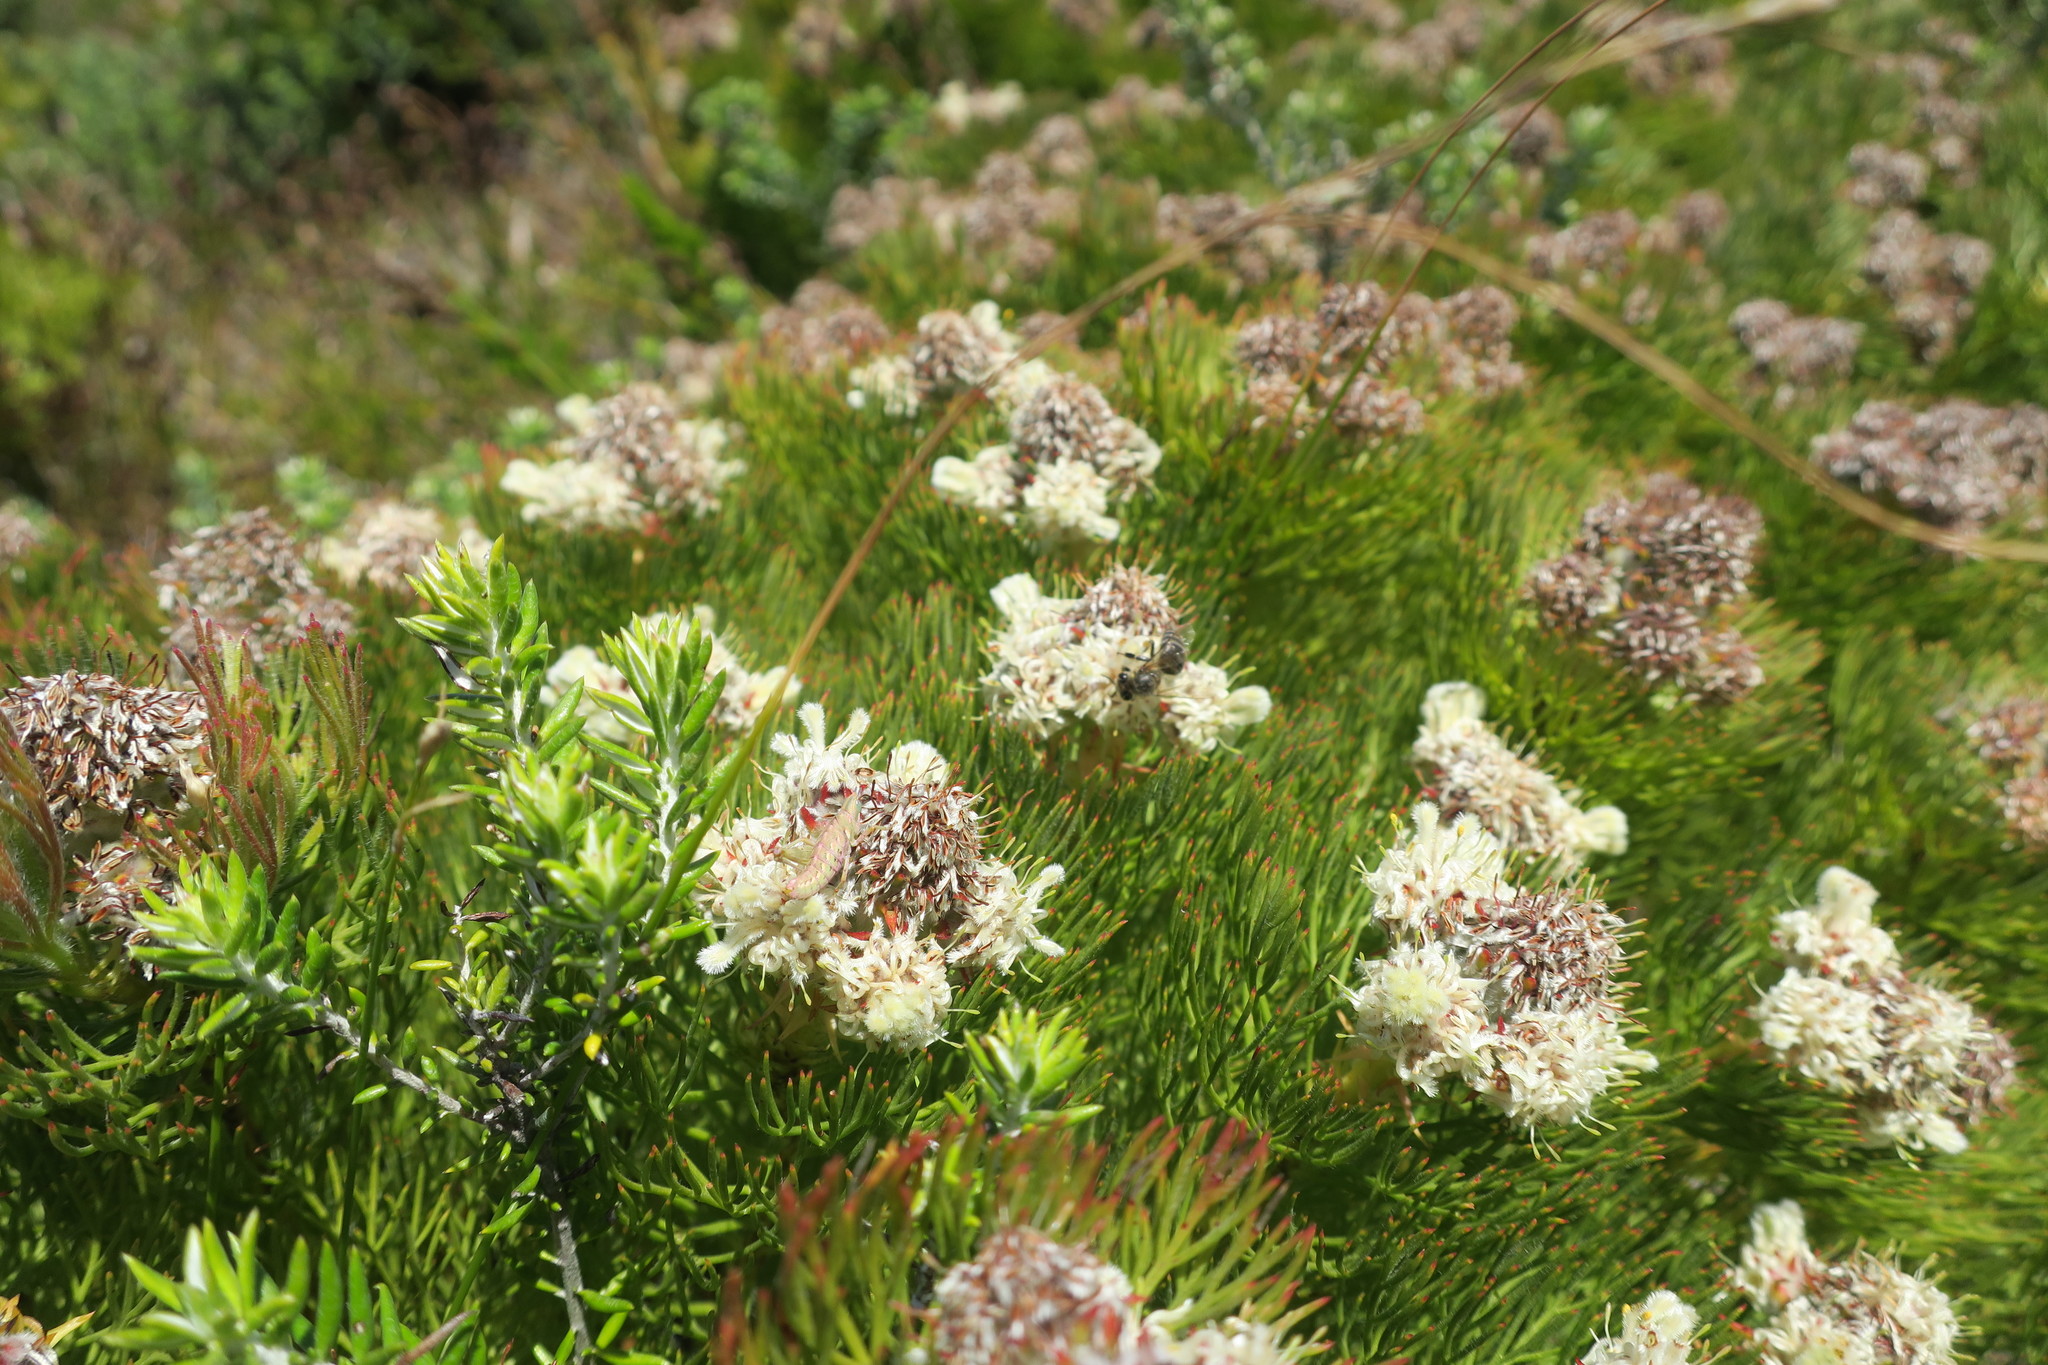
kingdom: Animalia
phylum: Arthropoda
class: Insecta
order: Orthoptera
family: Thericleidae
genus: Thericlesiella
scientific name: Thericlesiella meridionalis
